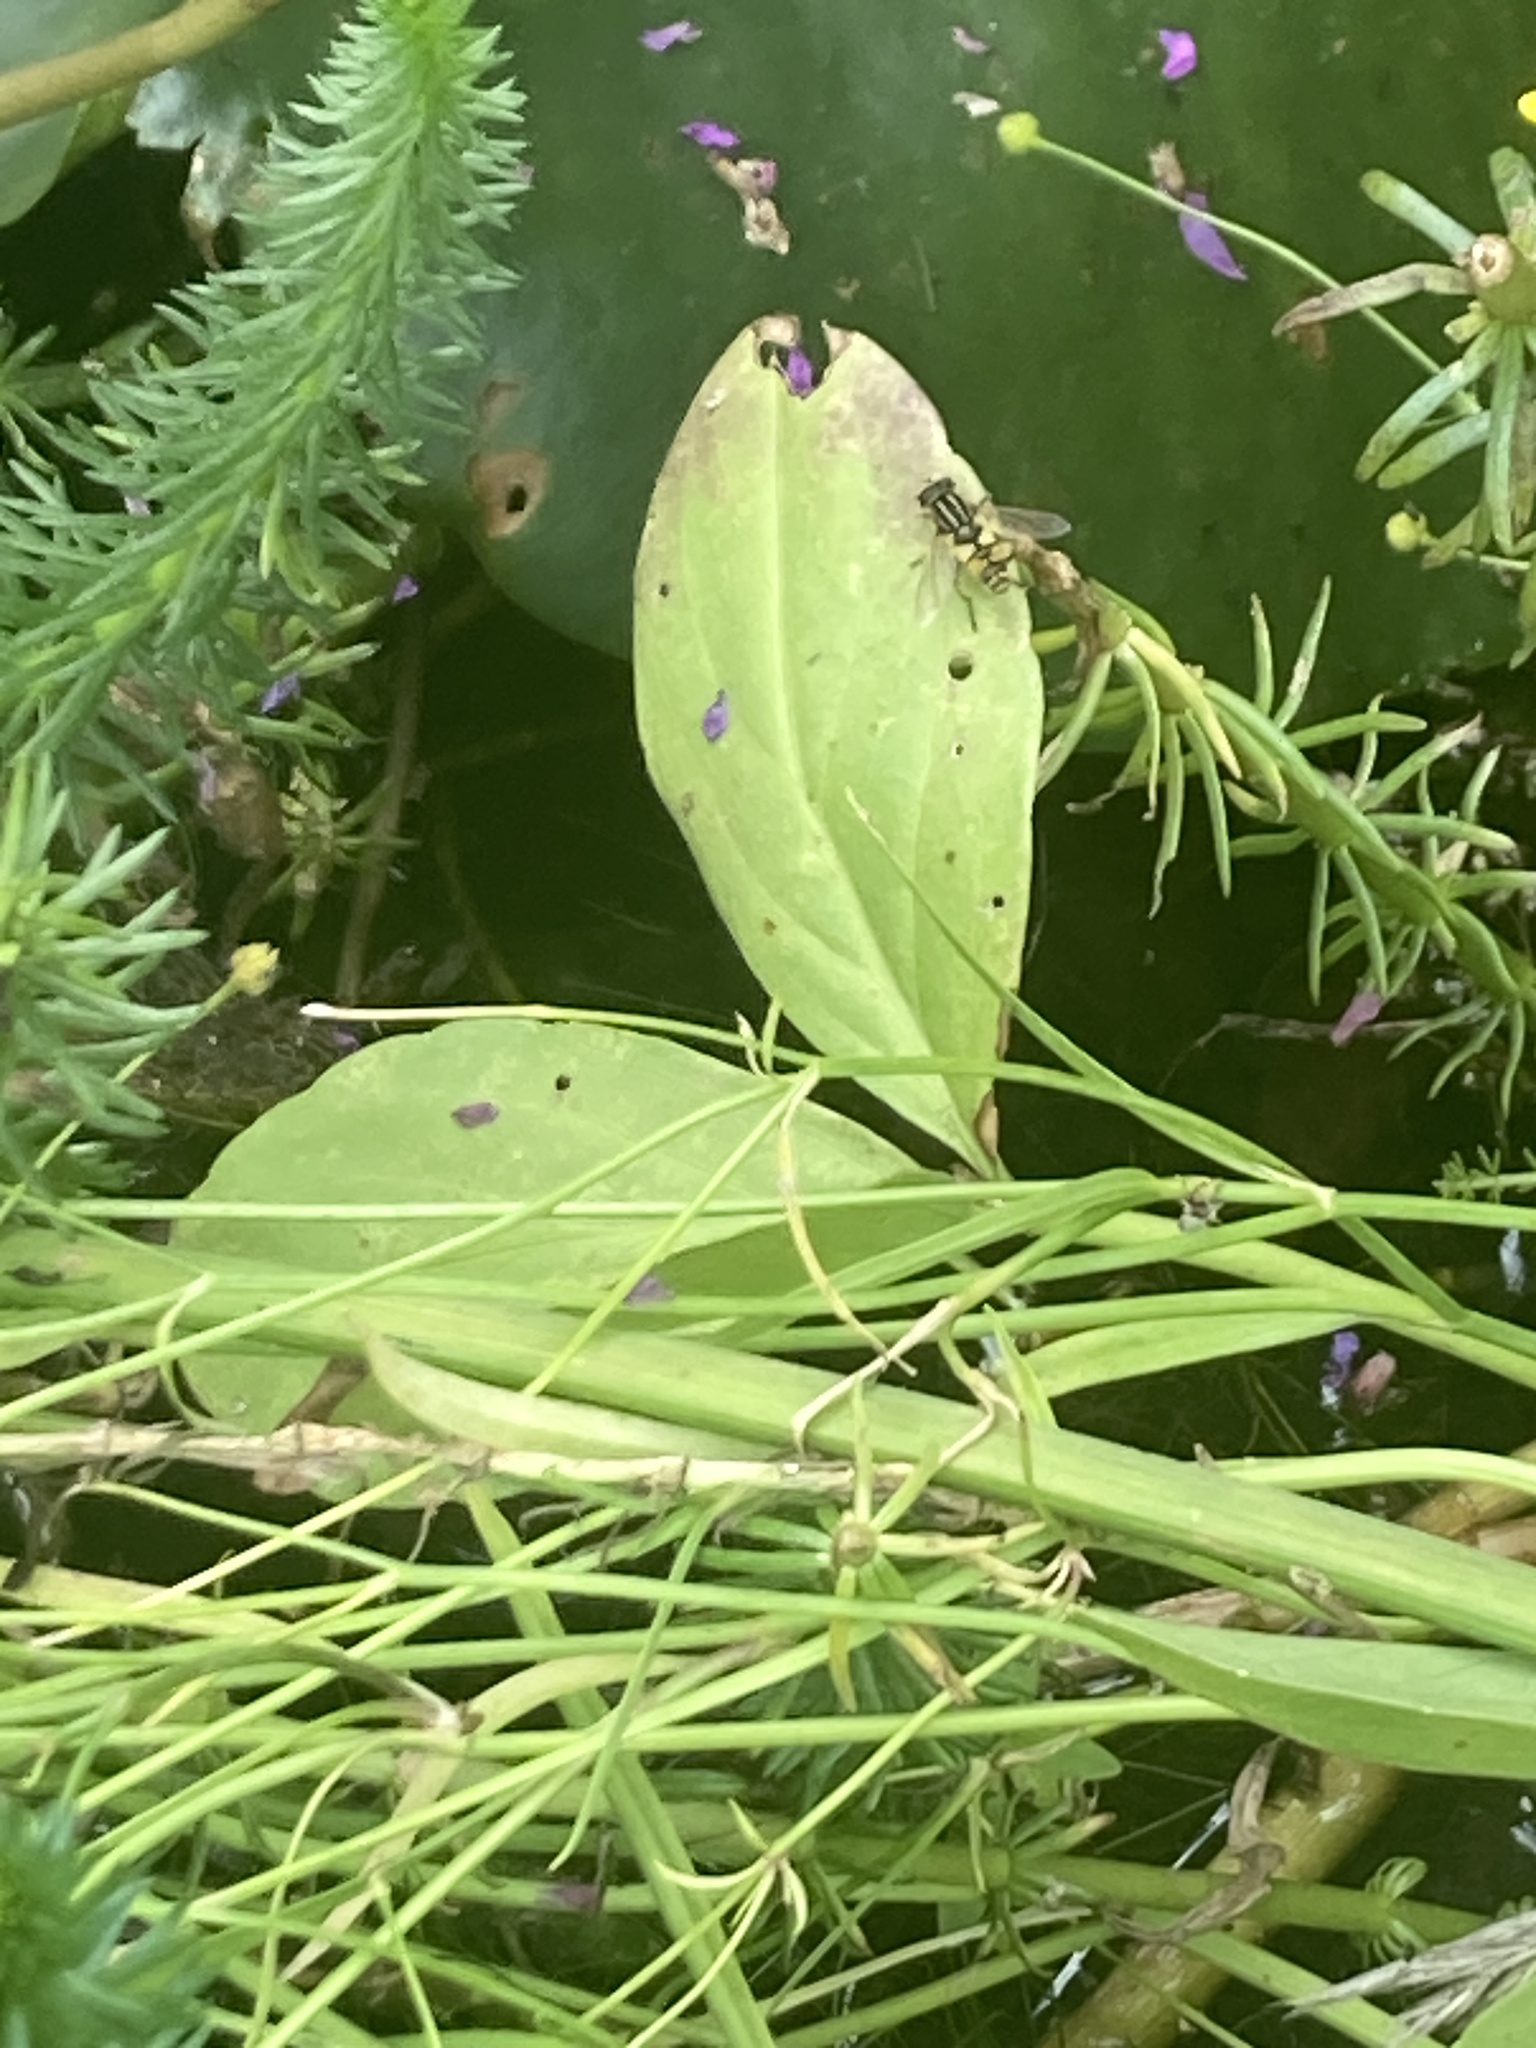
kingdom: Animalia
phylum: Arthropoda
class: Insecta
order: Diptera
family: Syrphidae
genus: Helophilus
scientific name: Helophilus pendulus
